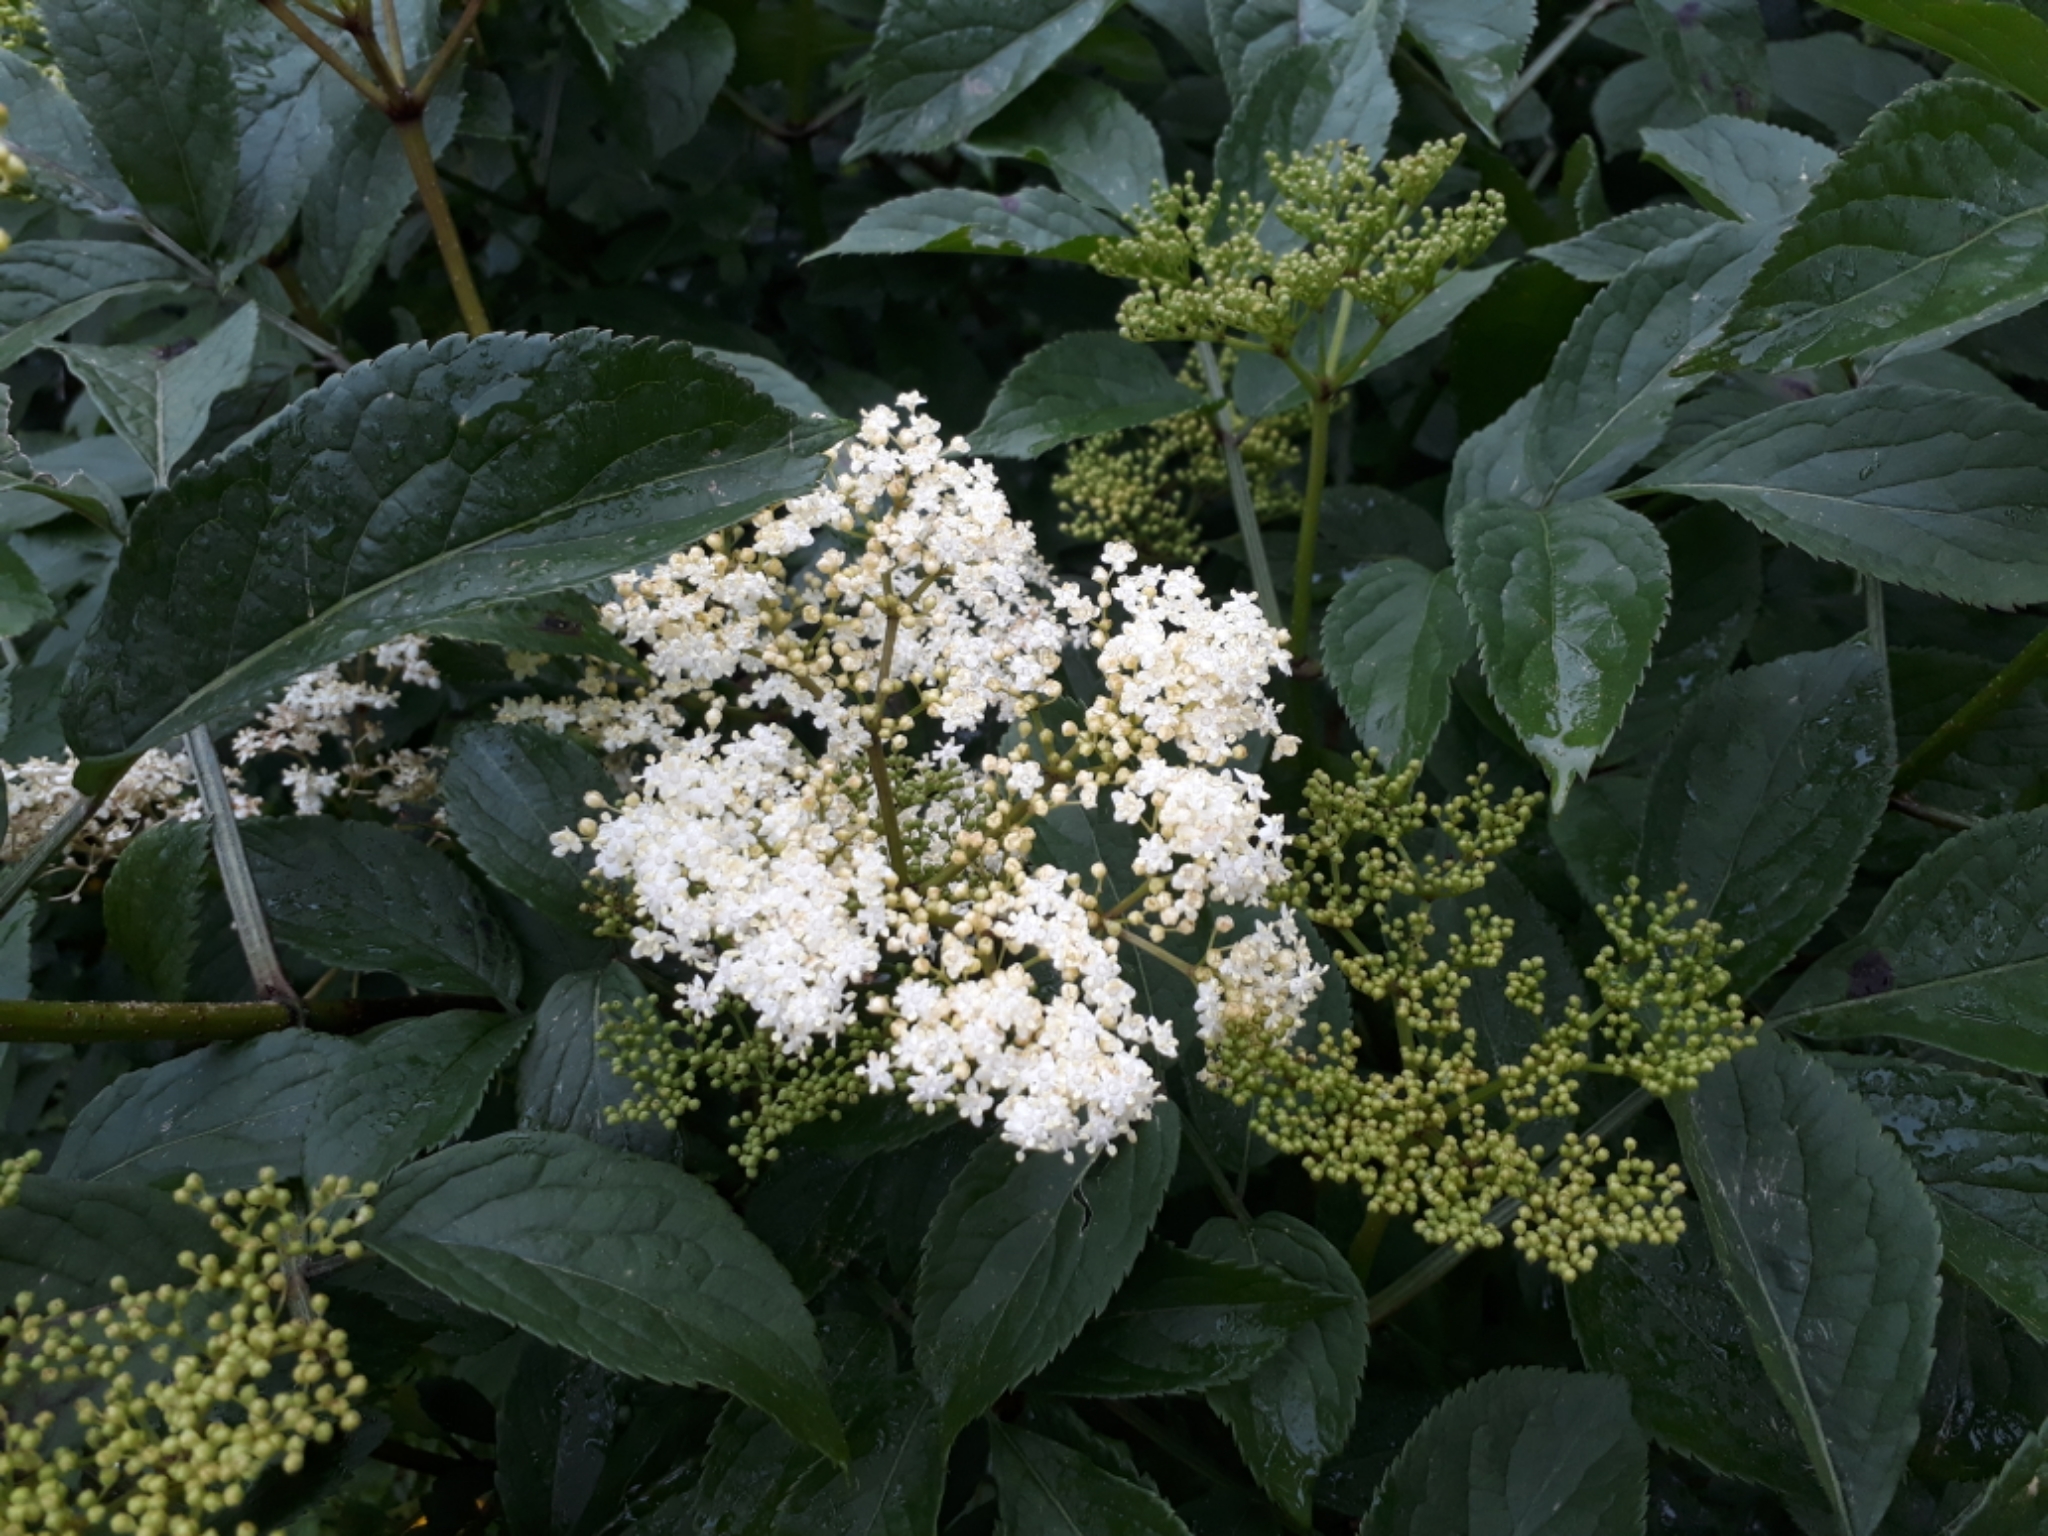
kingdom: Plantae
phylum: Tracheophyta
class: Magnoliopsida
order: Dipsacales
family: Viburnaceae
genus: Sambucus
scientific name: Sambucus nigra
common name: Elder
